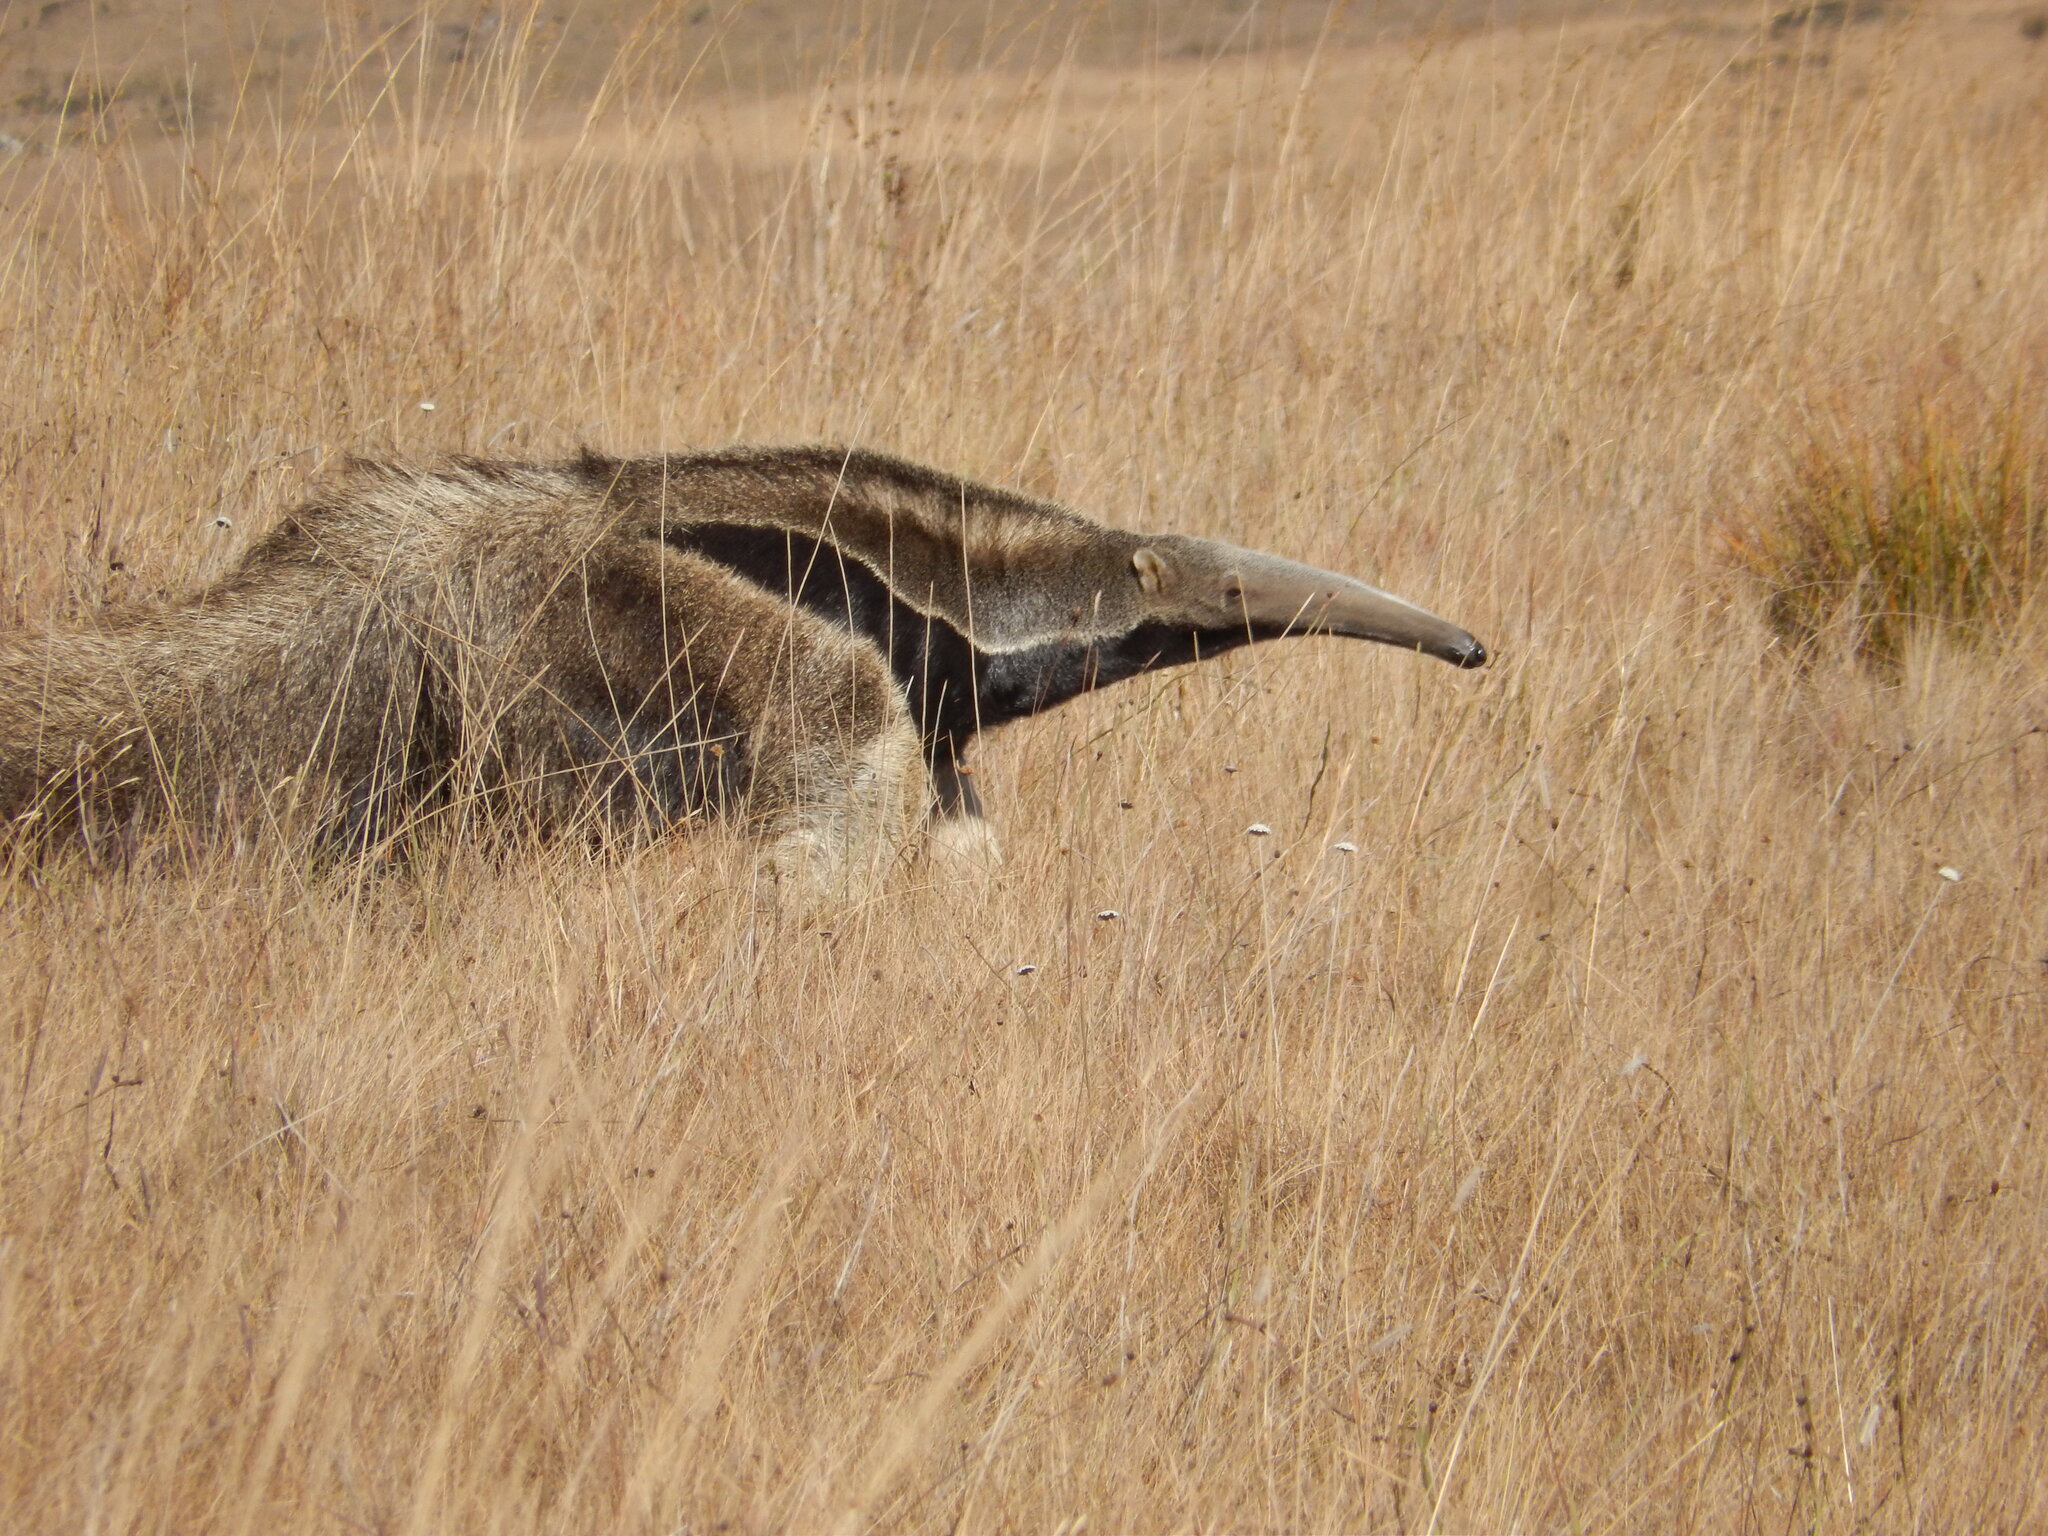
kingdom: Animalia
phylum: Chordata
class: Mammalia
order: Pilosa
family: Myrmecophagidae
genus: Myrmecophaga
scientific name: Myrmecophaga tridactyla
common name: Giant anteater
